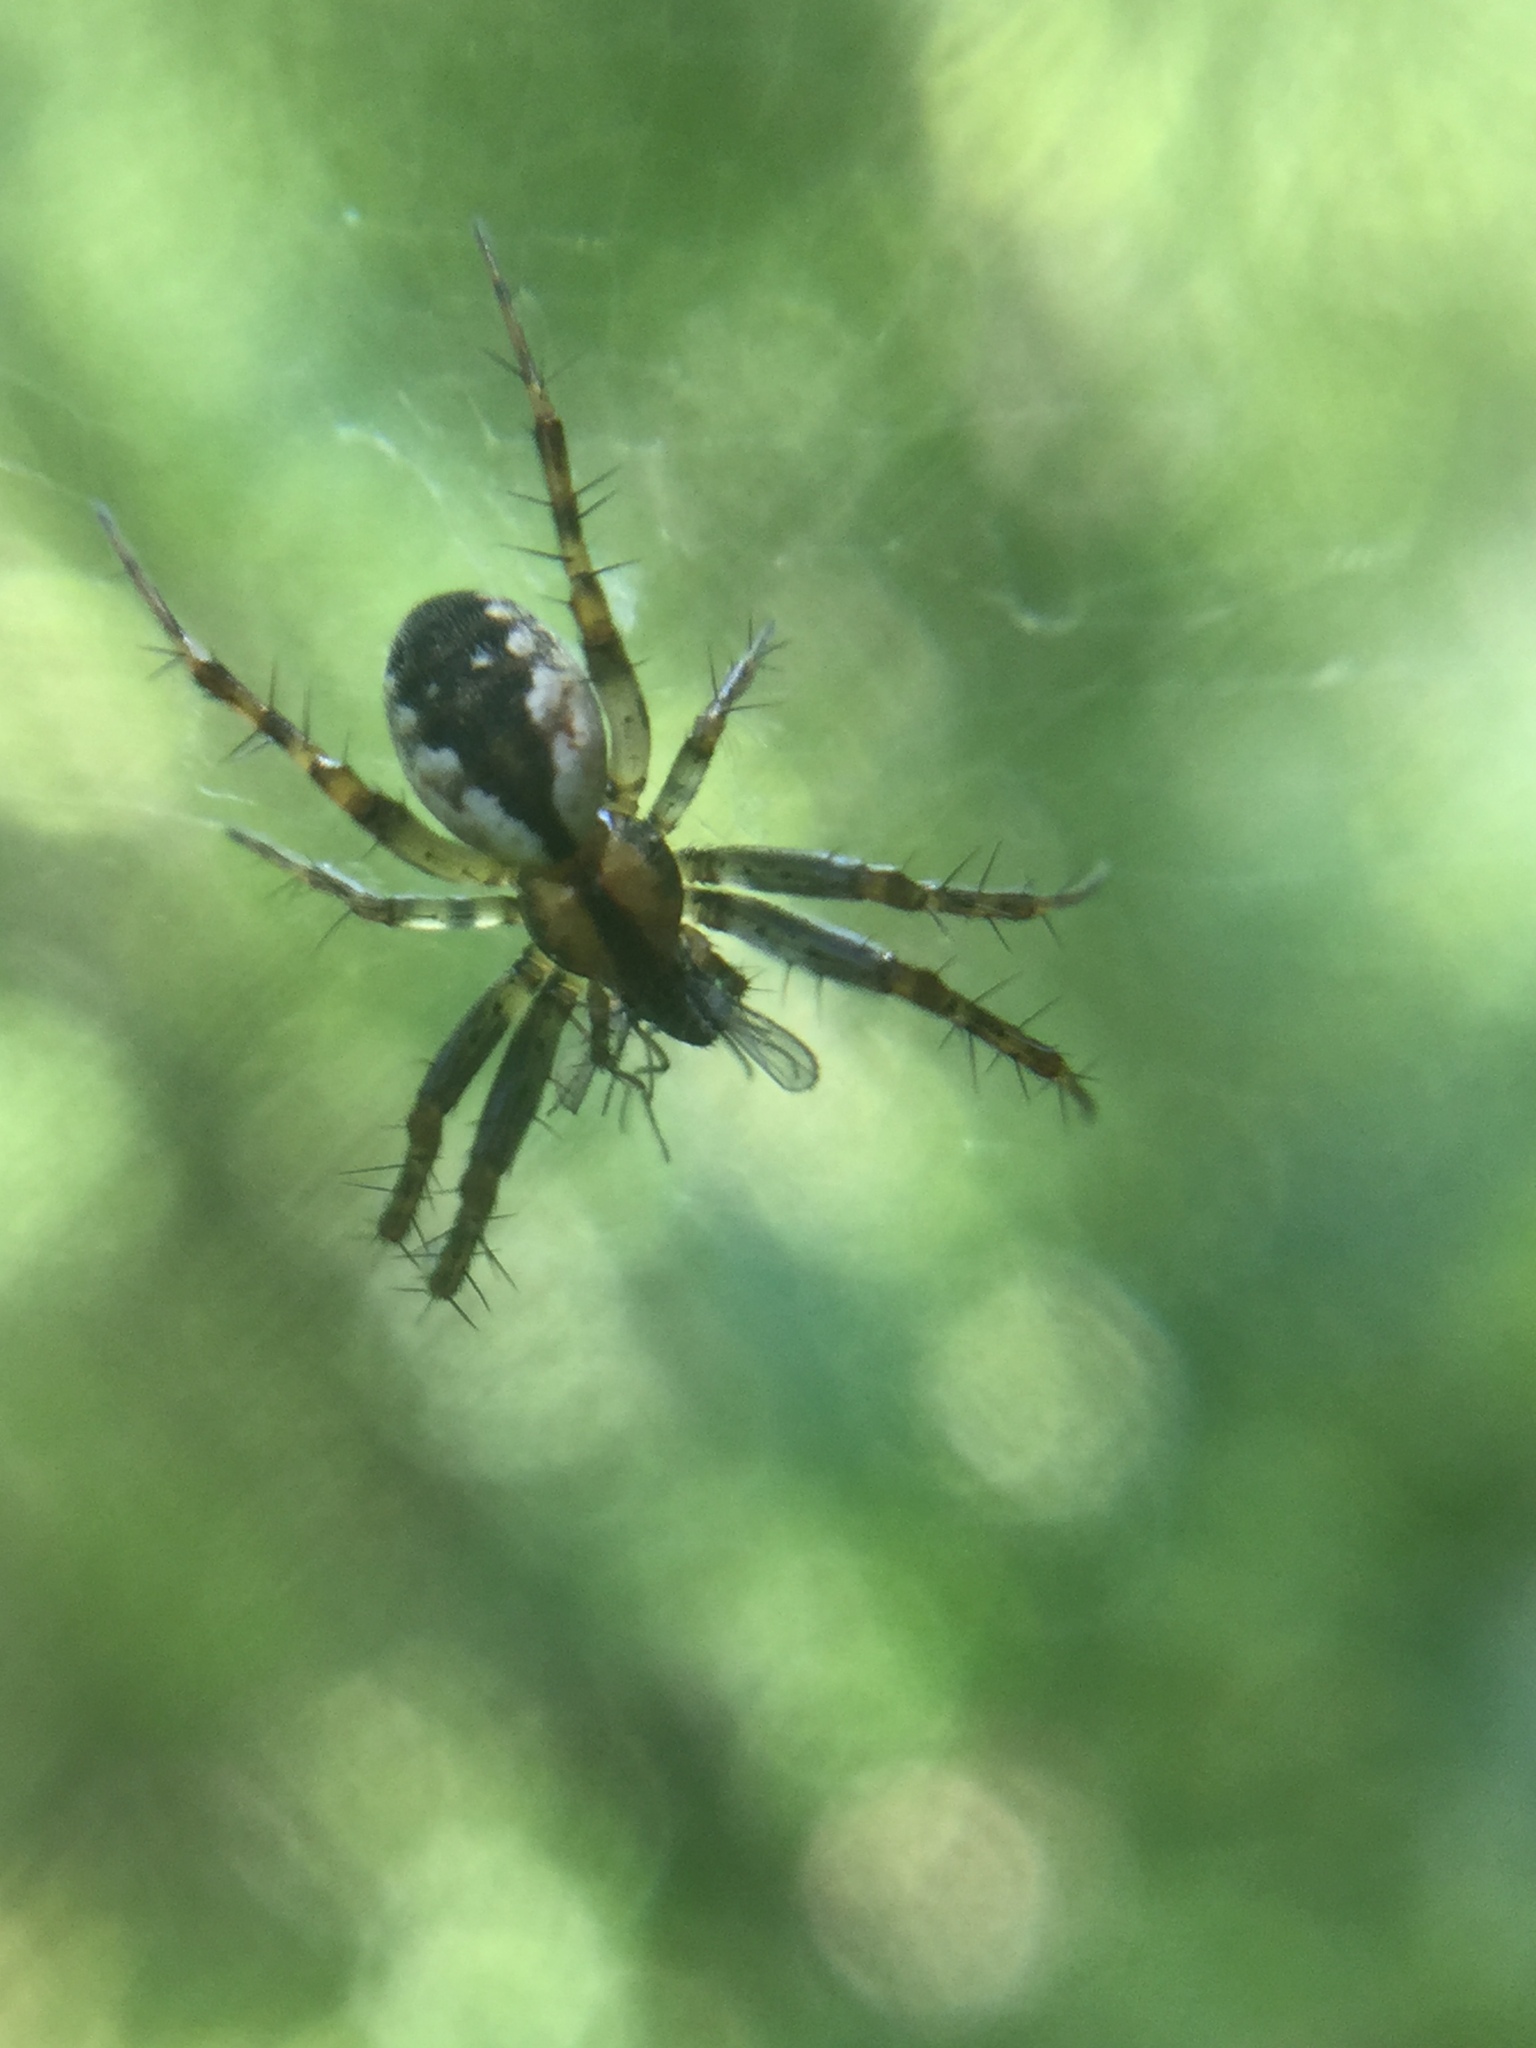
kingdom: Animalia
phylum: Arthropoda
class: Arachnida
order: Araneae
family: Araneidae
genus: Mangora
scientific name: Mangora placida
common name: Tuft-legged orbweaver
